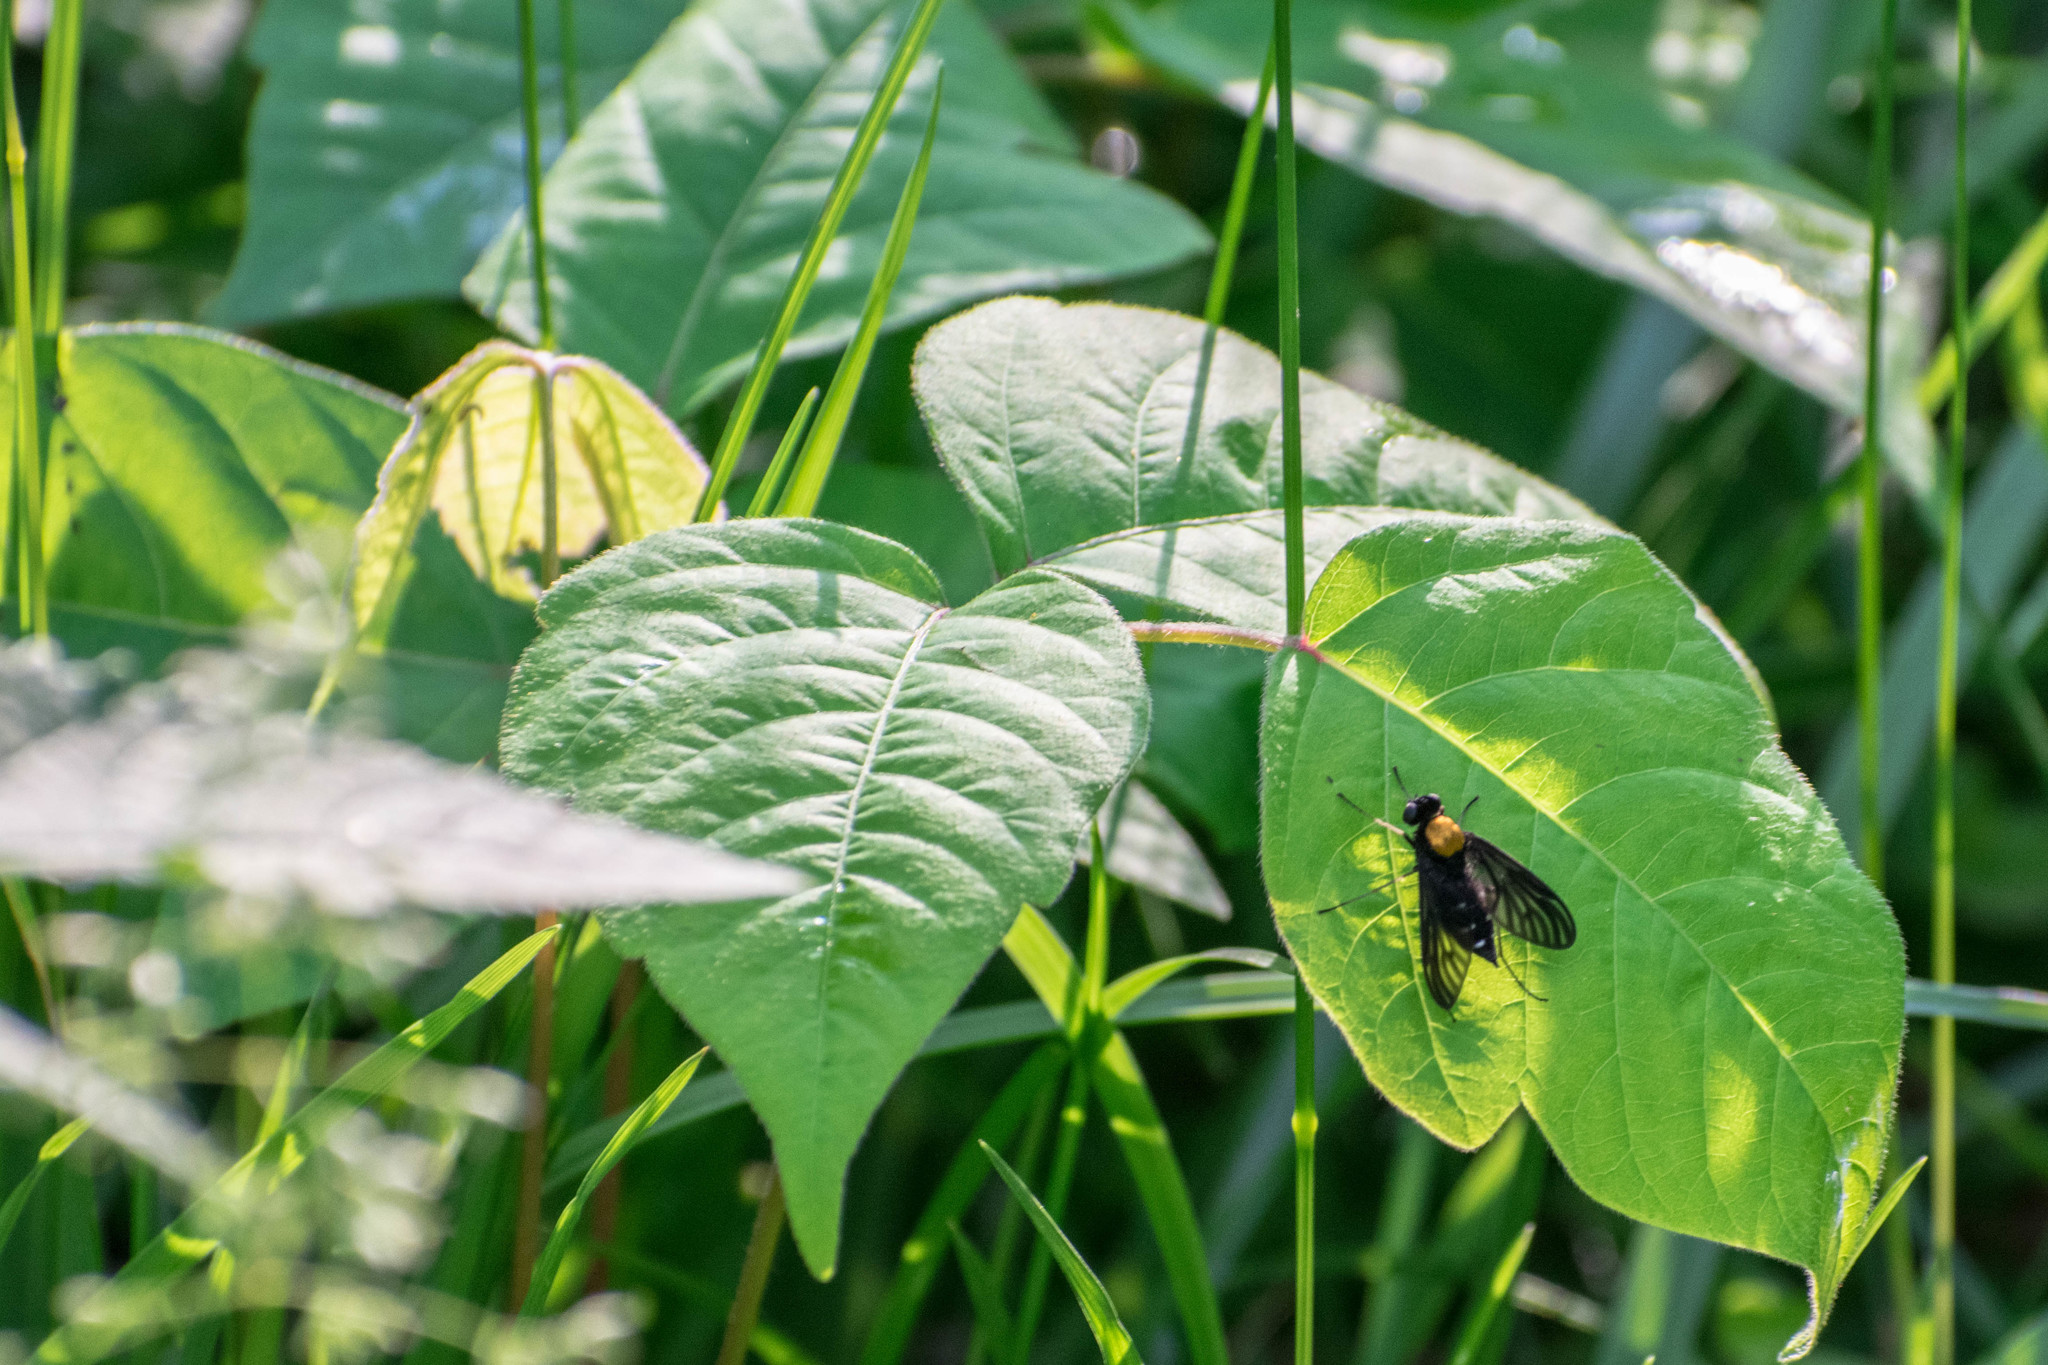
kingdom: Animalia
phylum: Arthropoda
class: Insecta
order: Diptera
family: Rhagionidae
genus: Chrysopilus
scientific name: Chrysopilus thoracicus
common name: Golden-backed snipe fly
